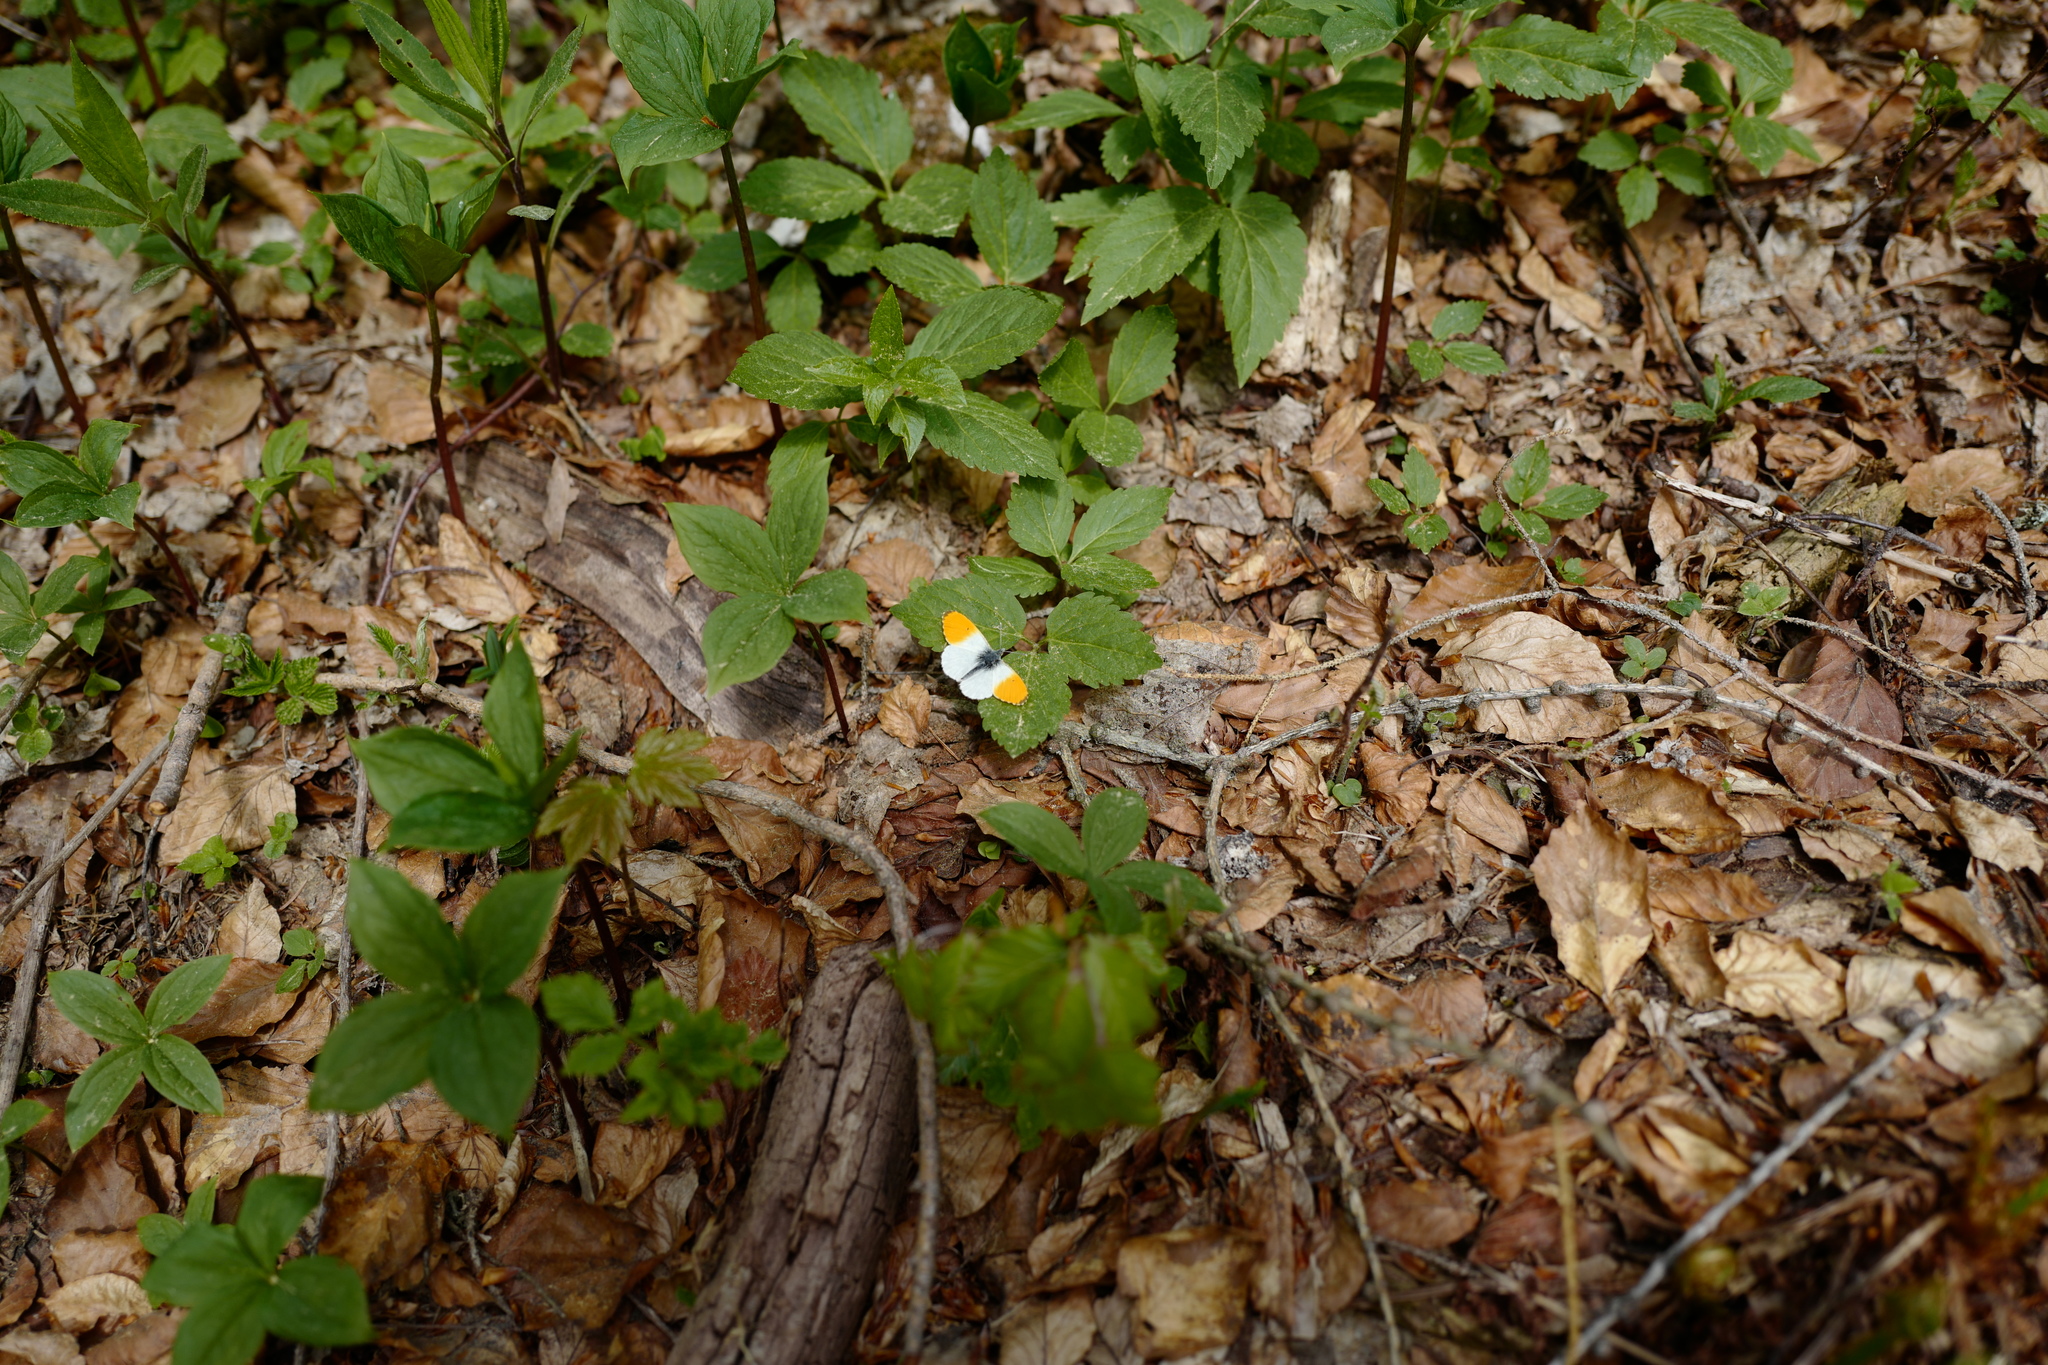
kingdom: Animalia
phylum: Arthropoda
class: Insecta
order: Lepidoptera
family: Pieridae
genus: Anthocharis
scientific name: Anthocharis cardamines
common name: Orange-tip
